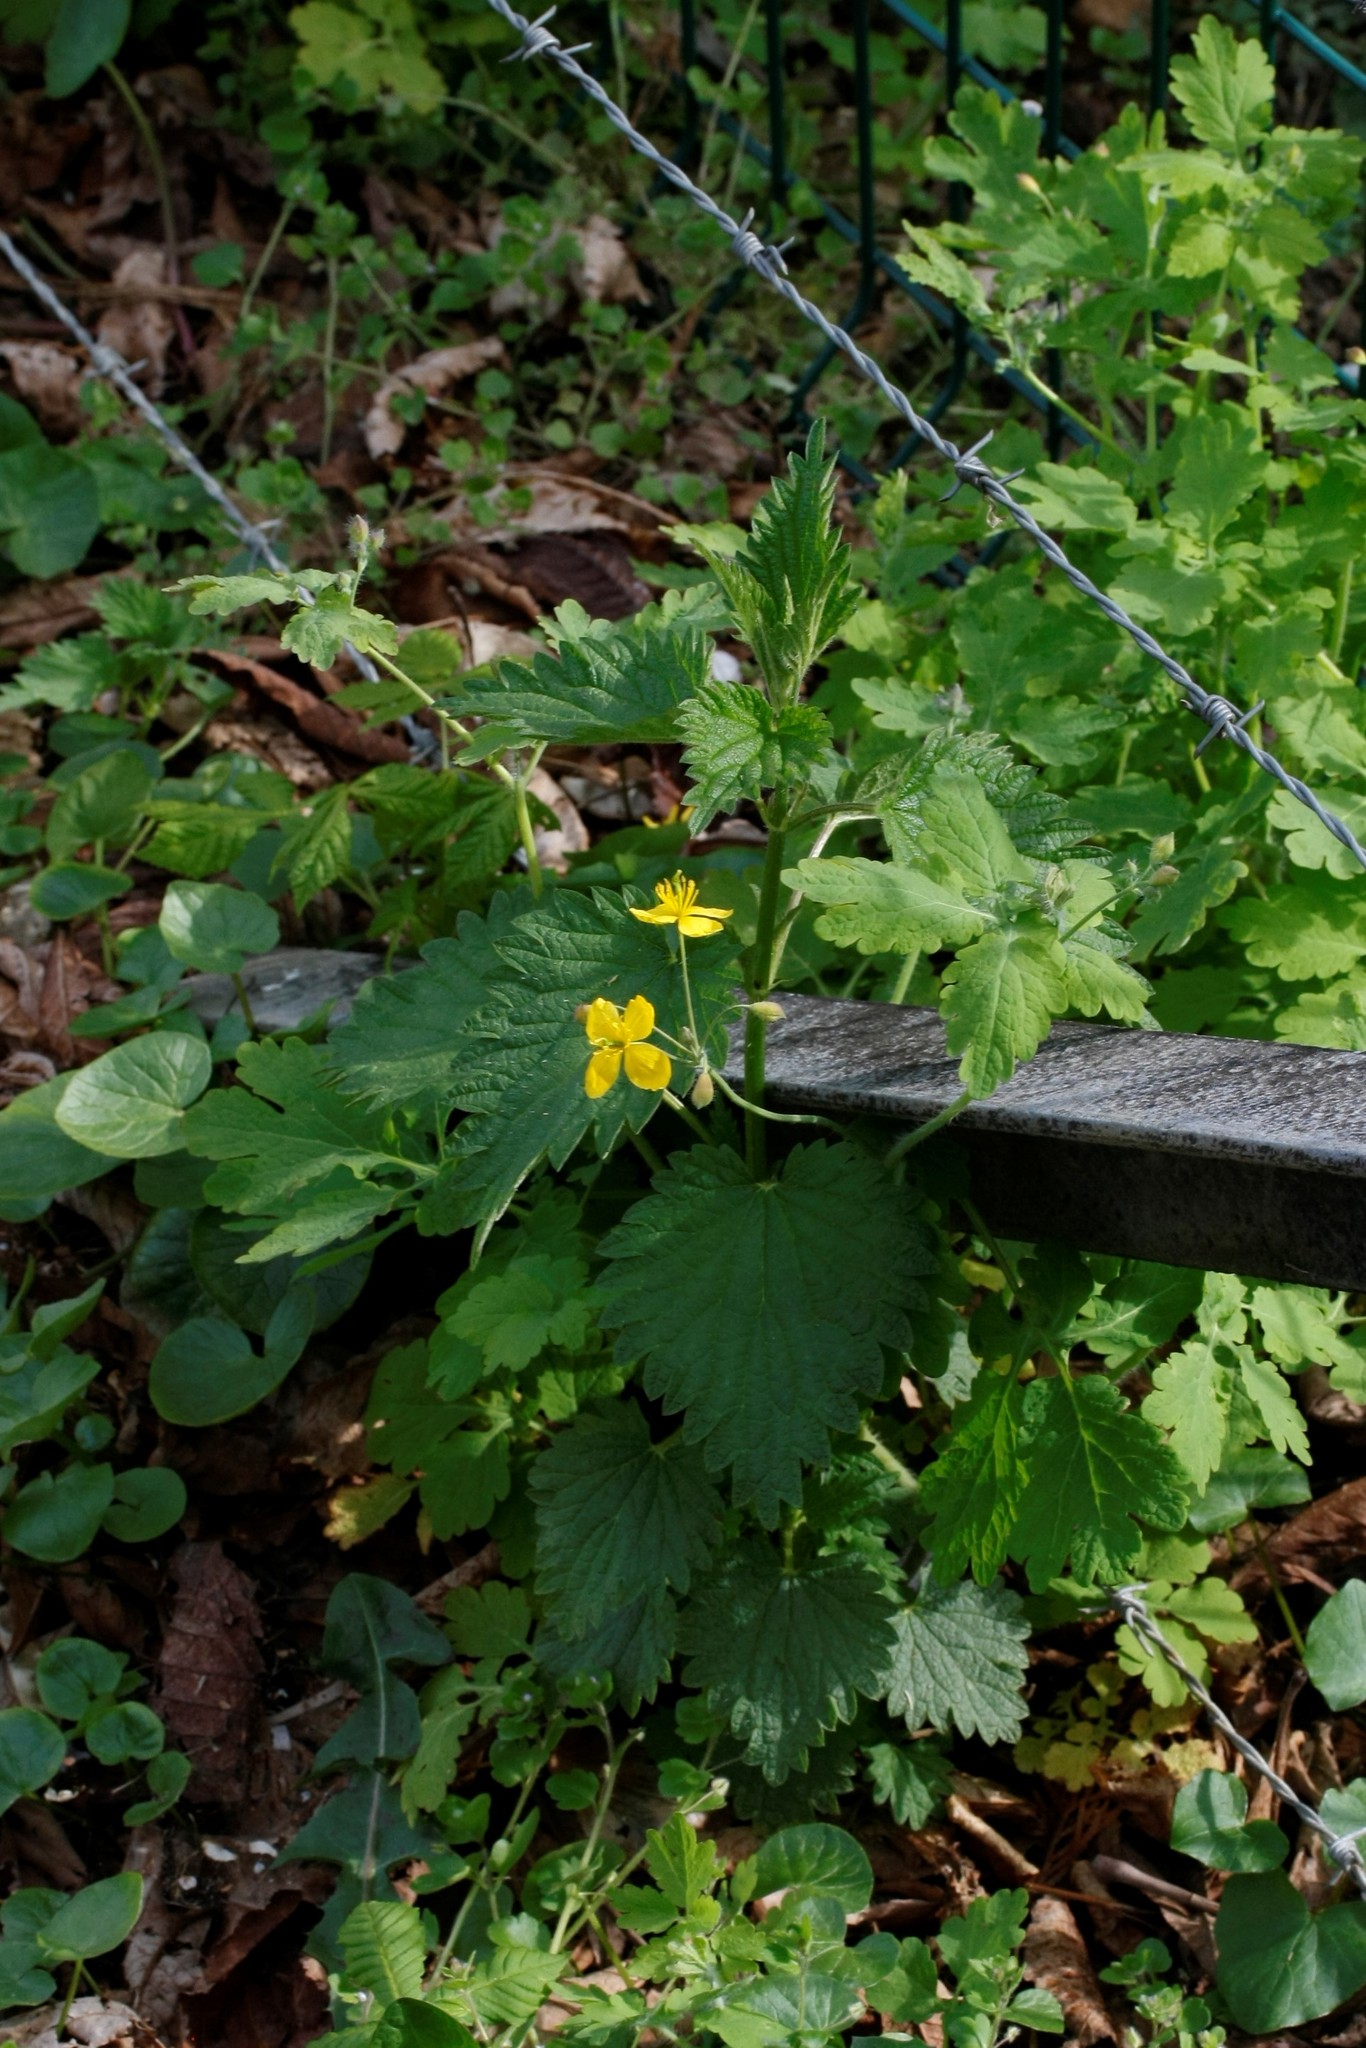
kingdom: Plantae
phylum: Tracheophyta
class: Magnoliopsida
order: Ranunculales
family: Papaveraceae
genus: Chelidonium
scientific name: Chelidonium majus
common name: Greater celandine
